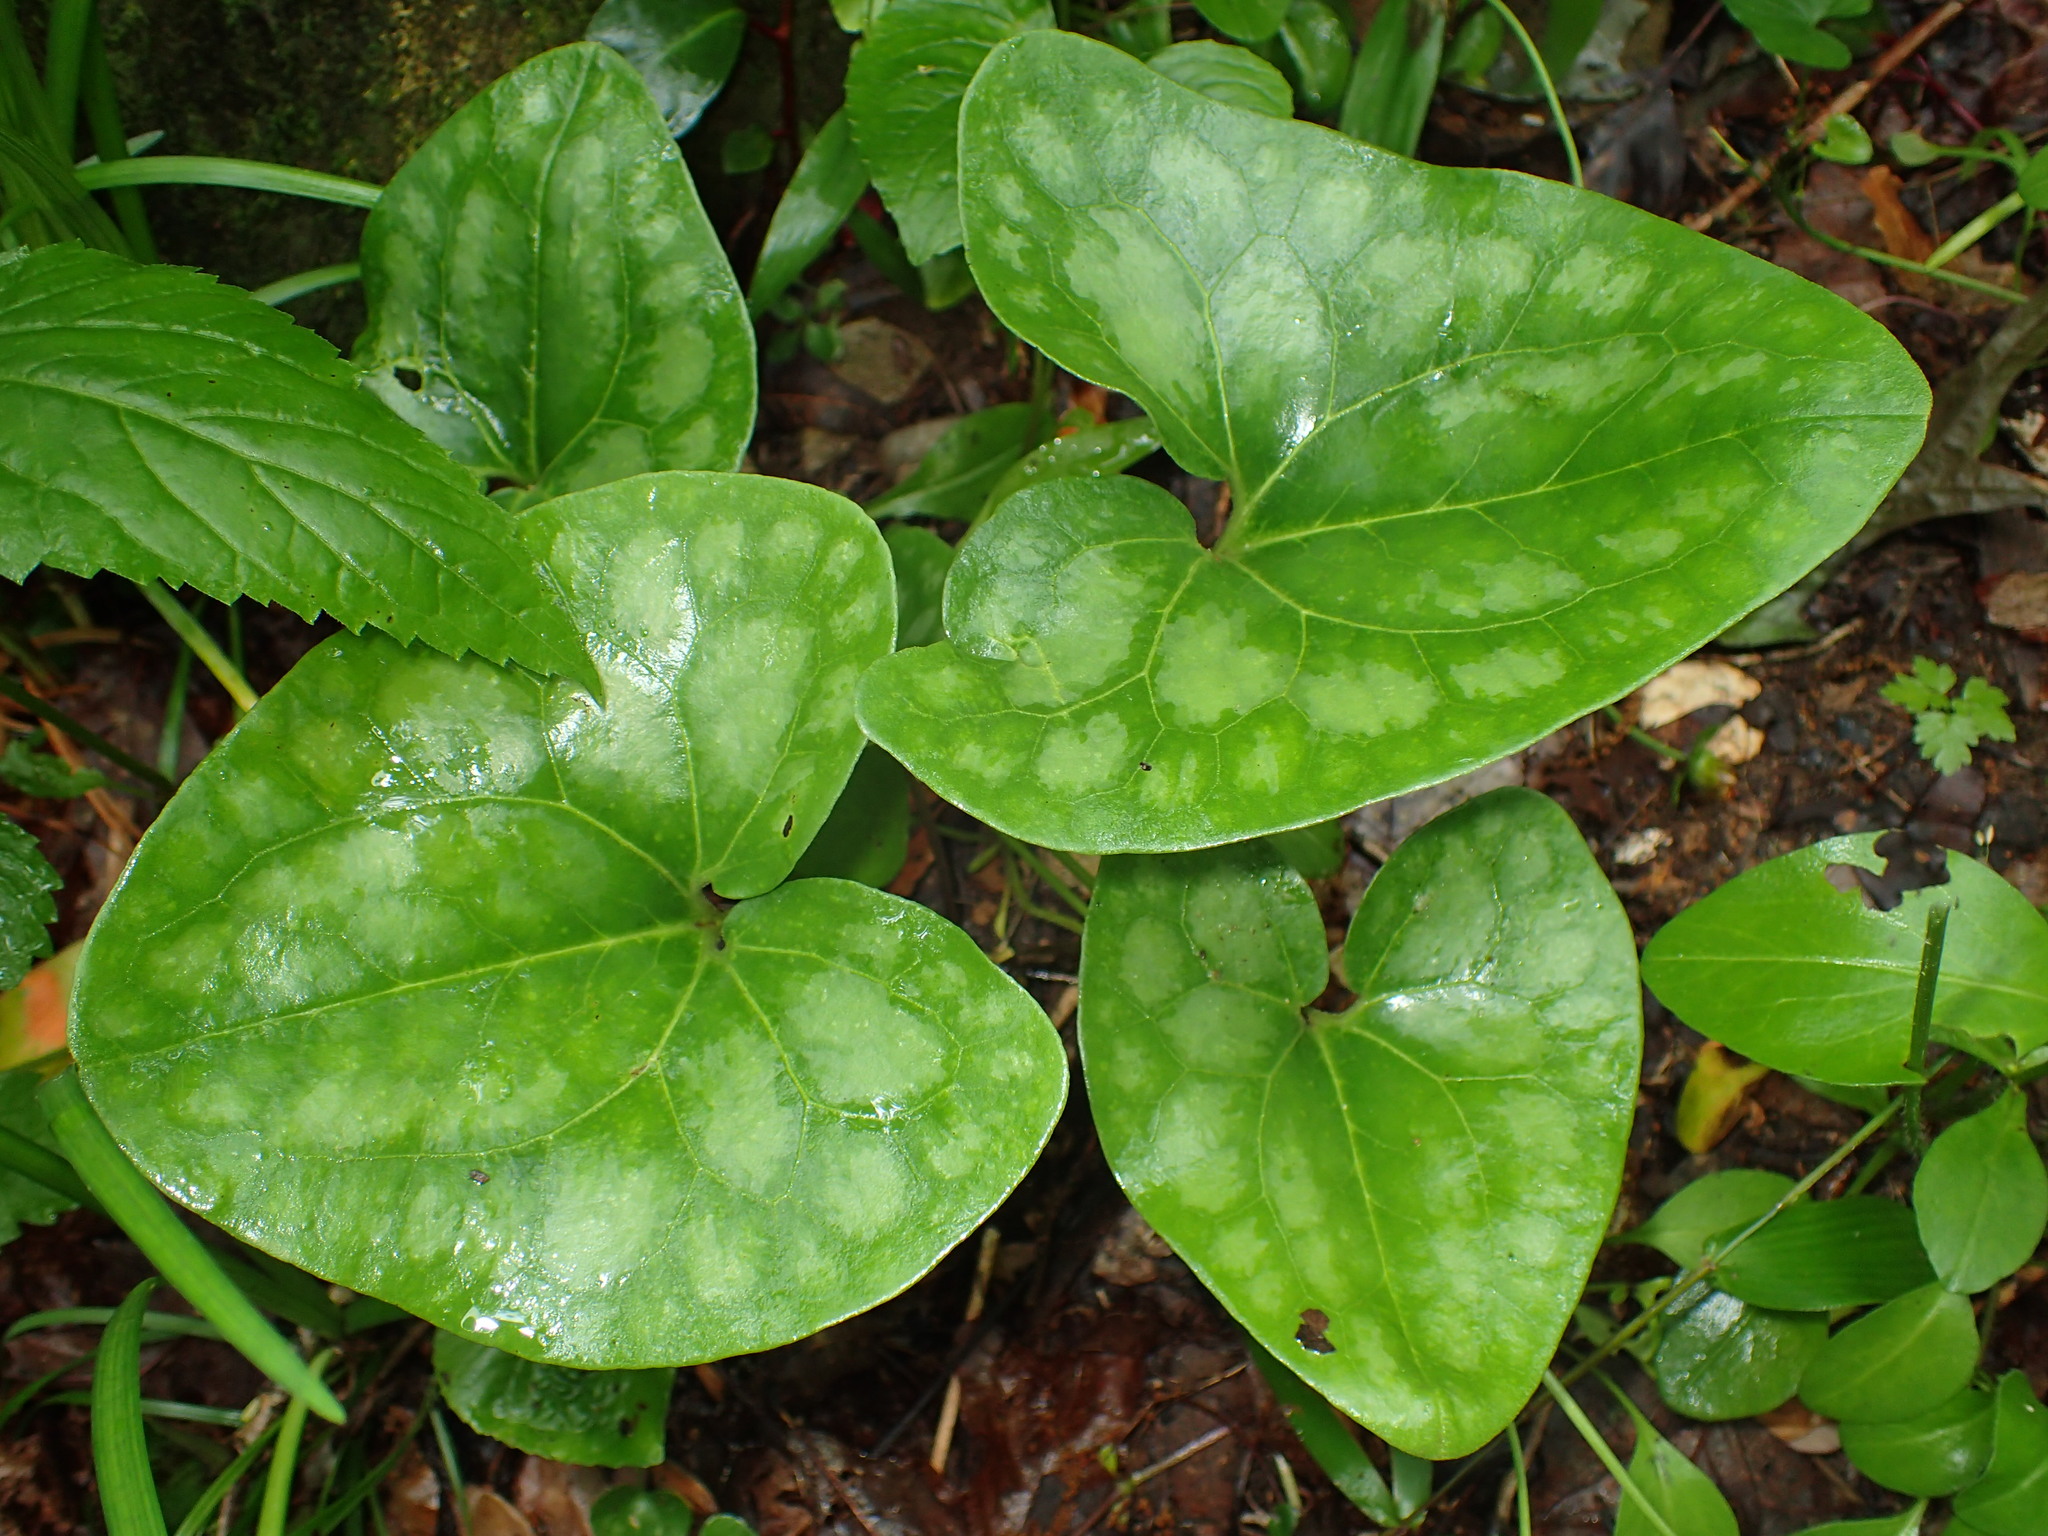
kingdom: Plantae
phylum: Tracheophyta
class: Magnoliopsida
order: Piperales
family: Aristolochiaceae
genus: Hexastylis
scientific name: Hexastylis arifolia
